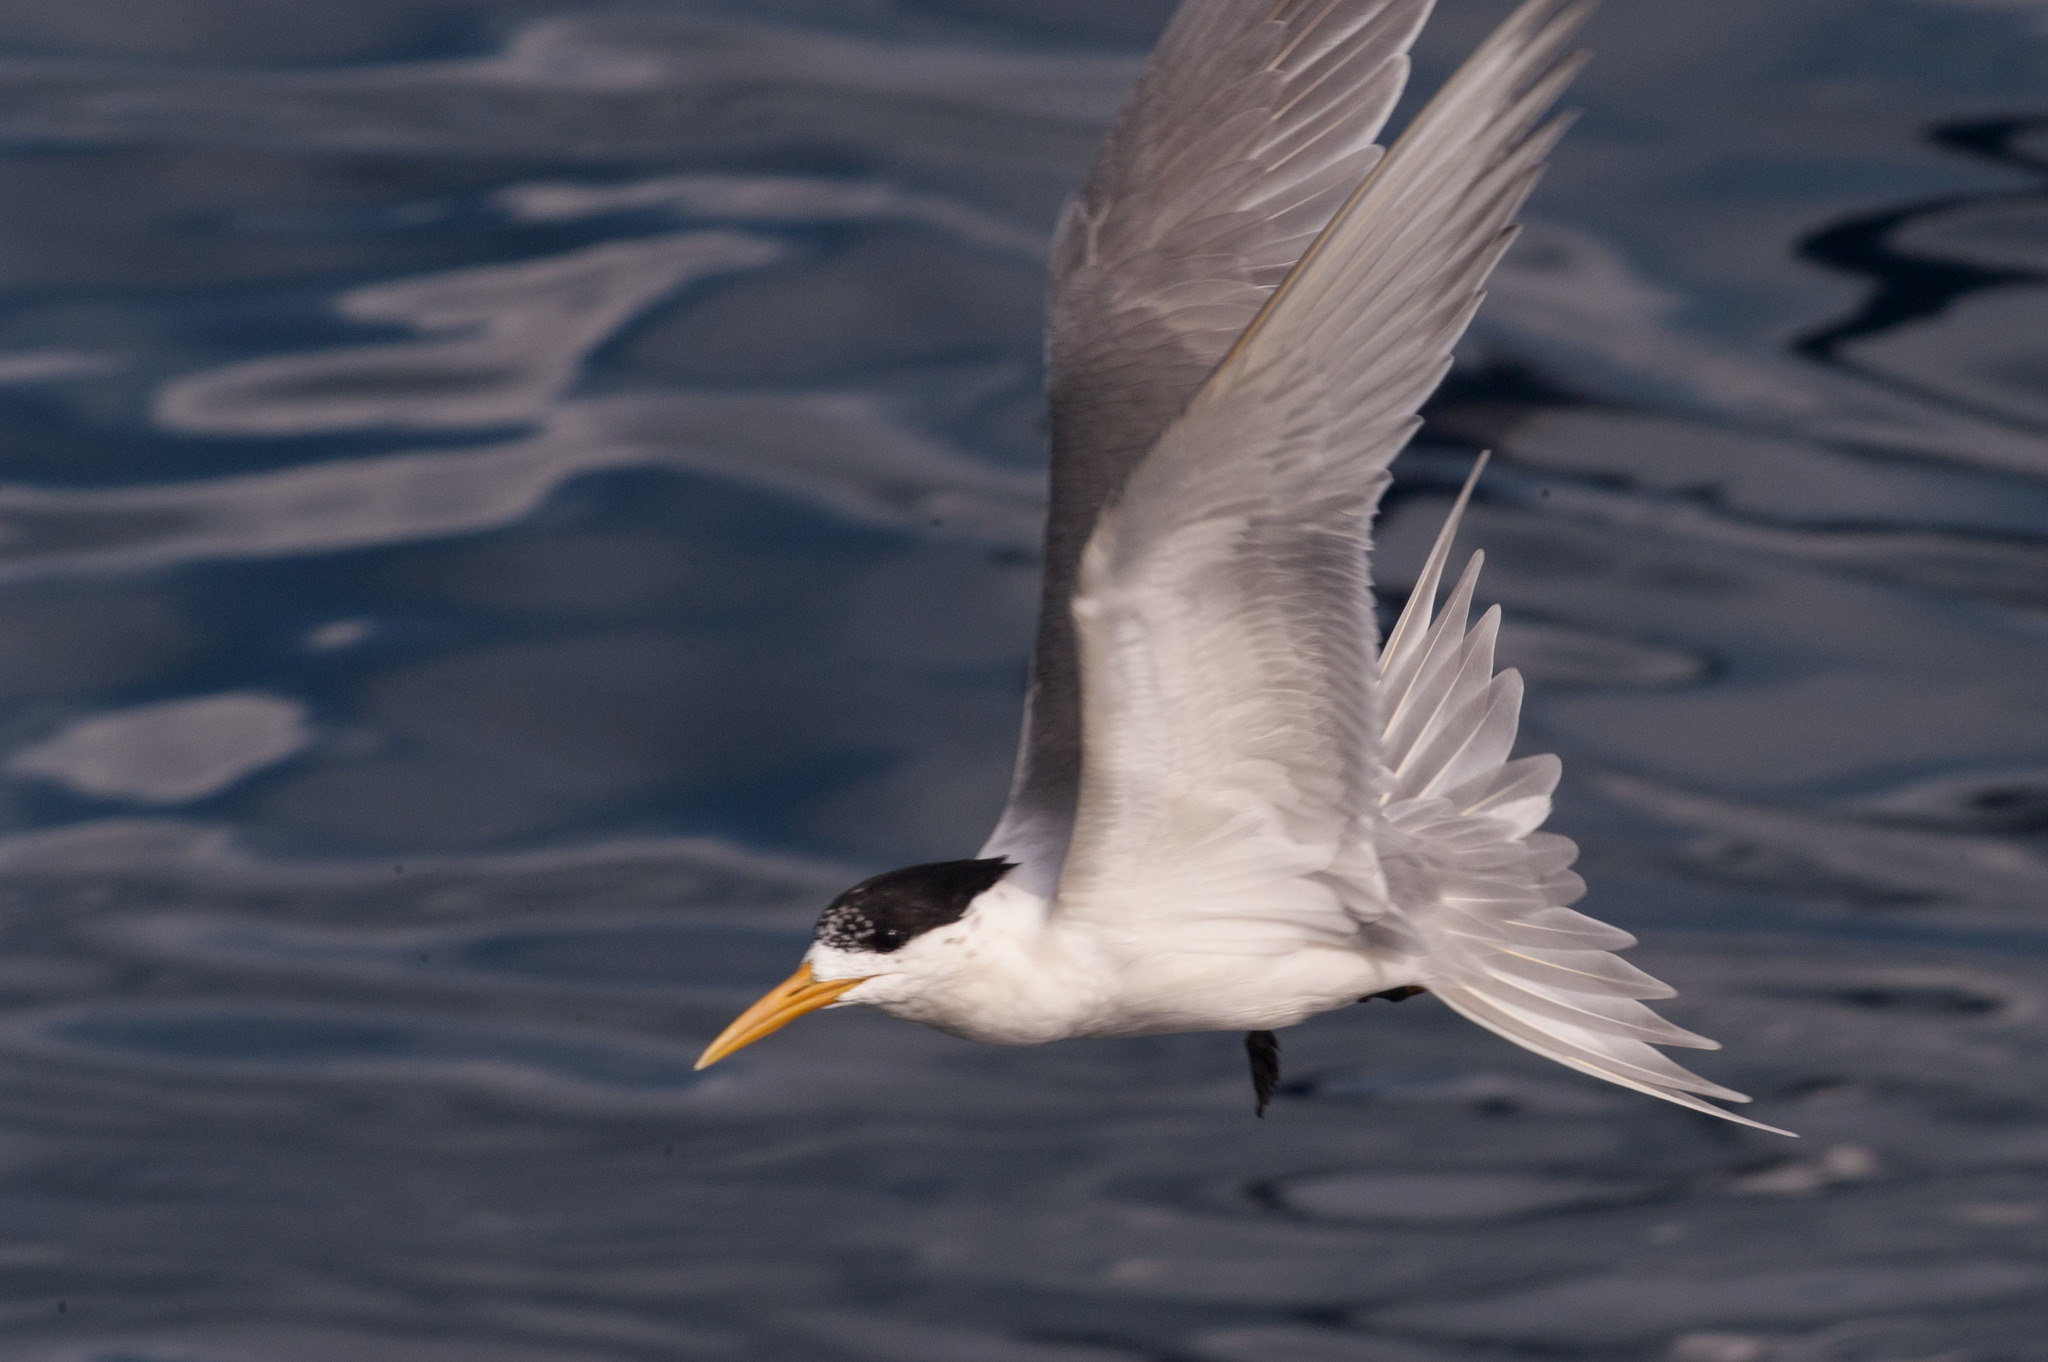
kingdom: Animalia
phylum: Chordata
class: Aves
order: Charadriiformes
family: Laridae
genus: Thalasseus
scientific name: Thalasseus bergii
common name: Greater crested tern
